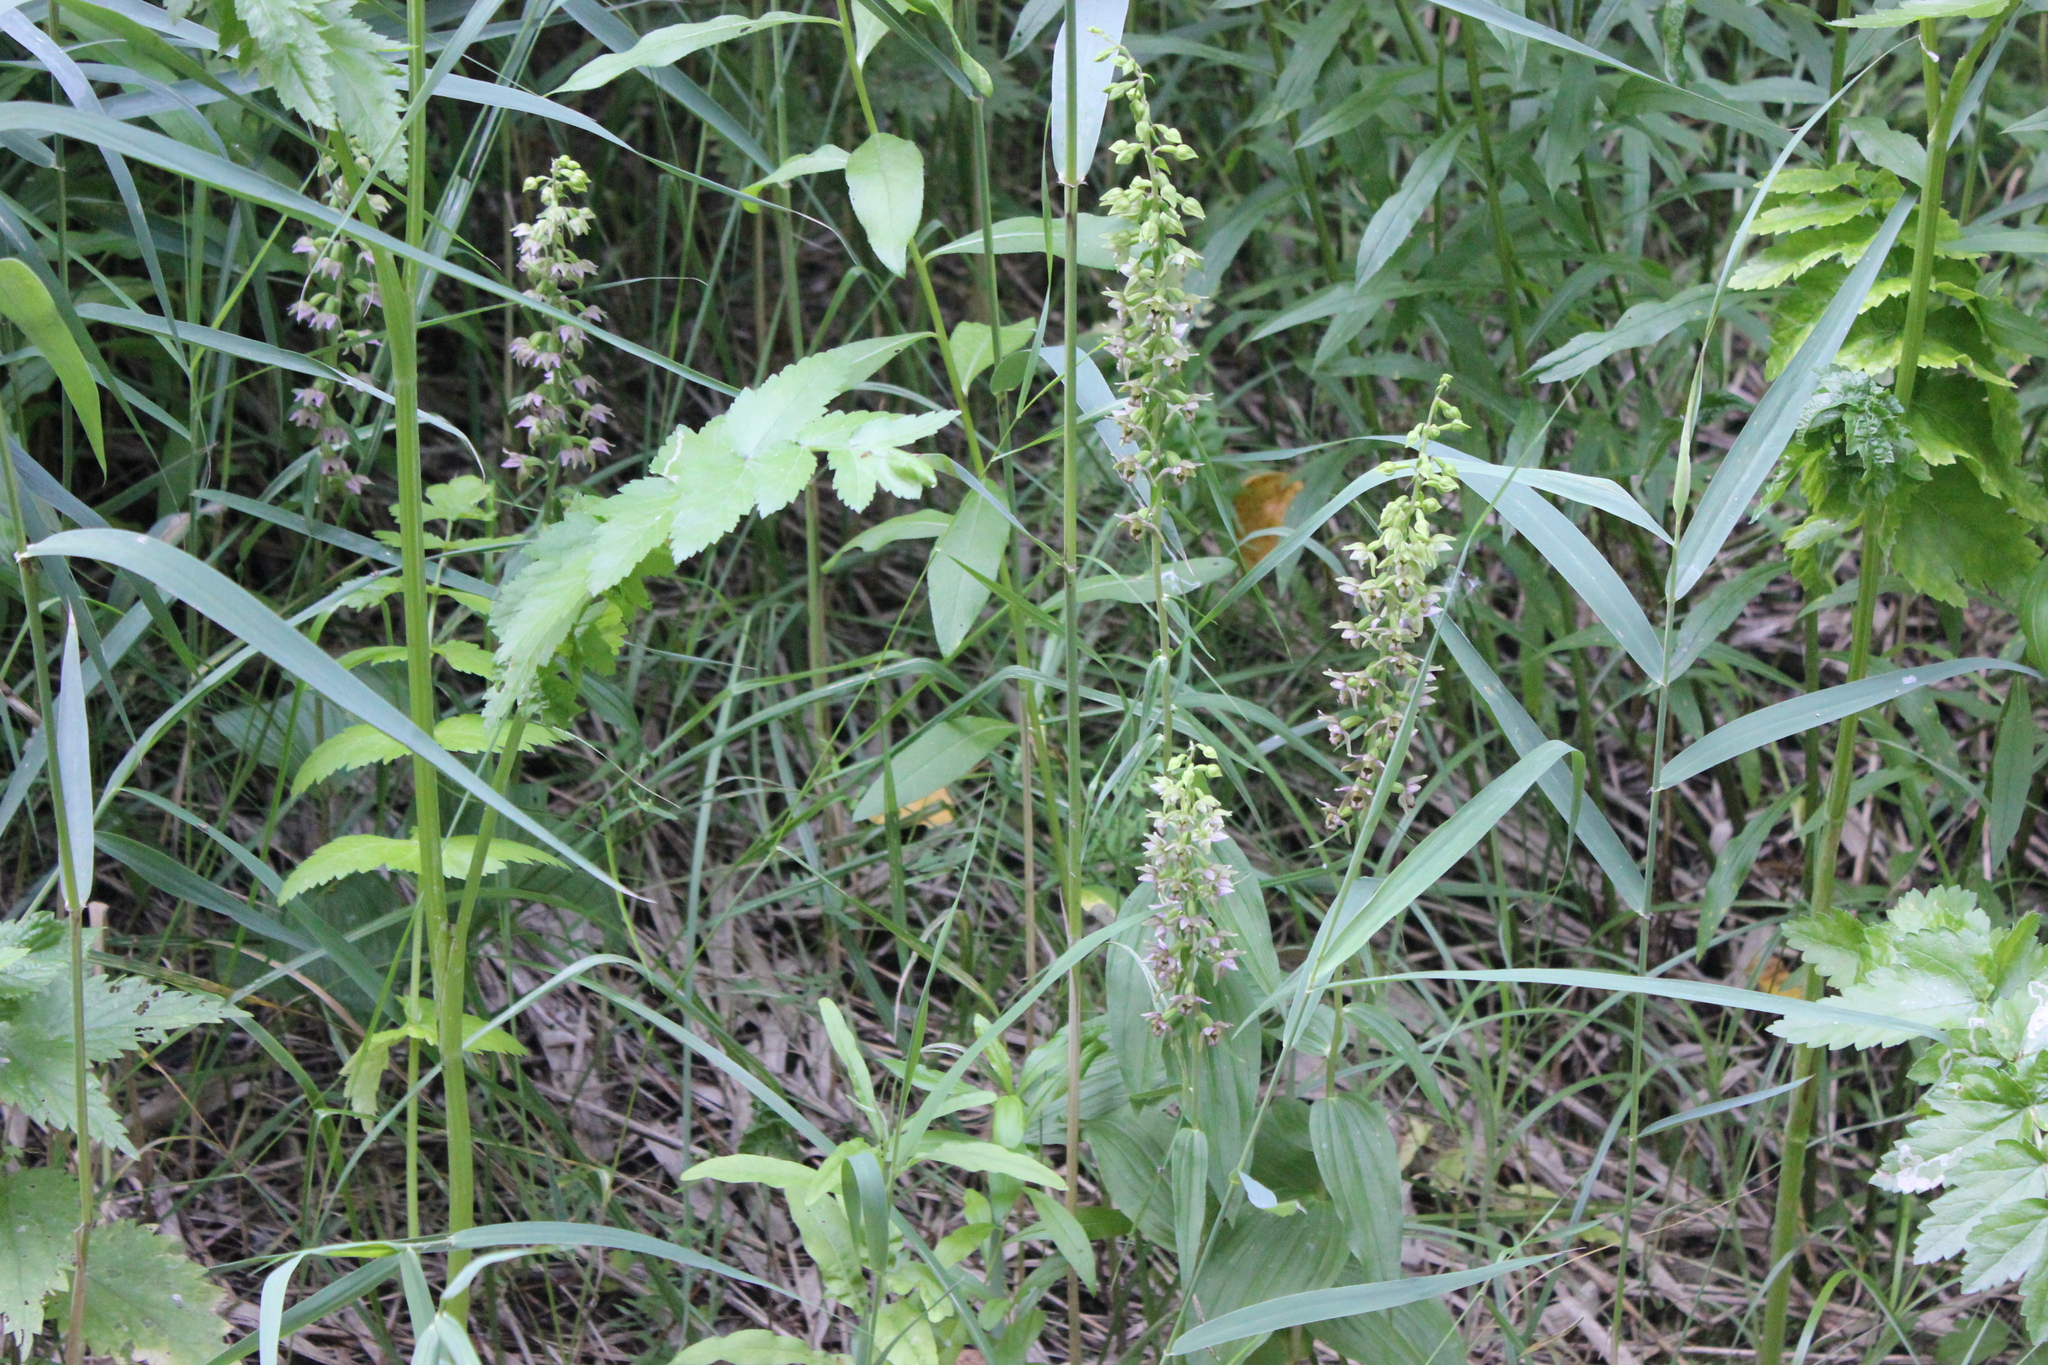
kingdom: Plantae
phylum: Tracheophyta
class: Liliopsida
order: Asparagales
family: Orchidaceae
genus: Epipactis
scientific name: Epipactis helleborine
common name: Broad-leaved helleborine
